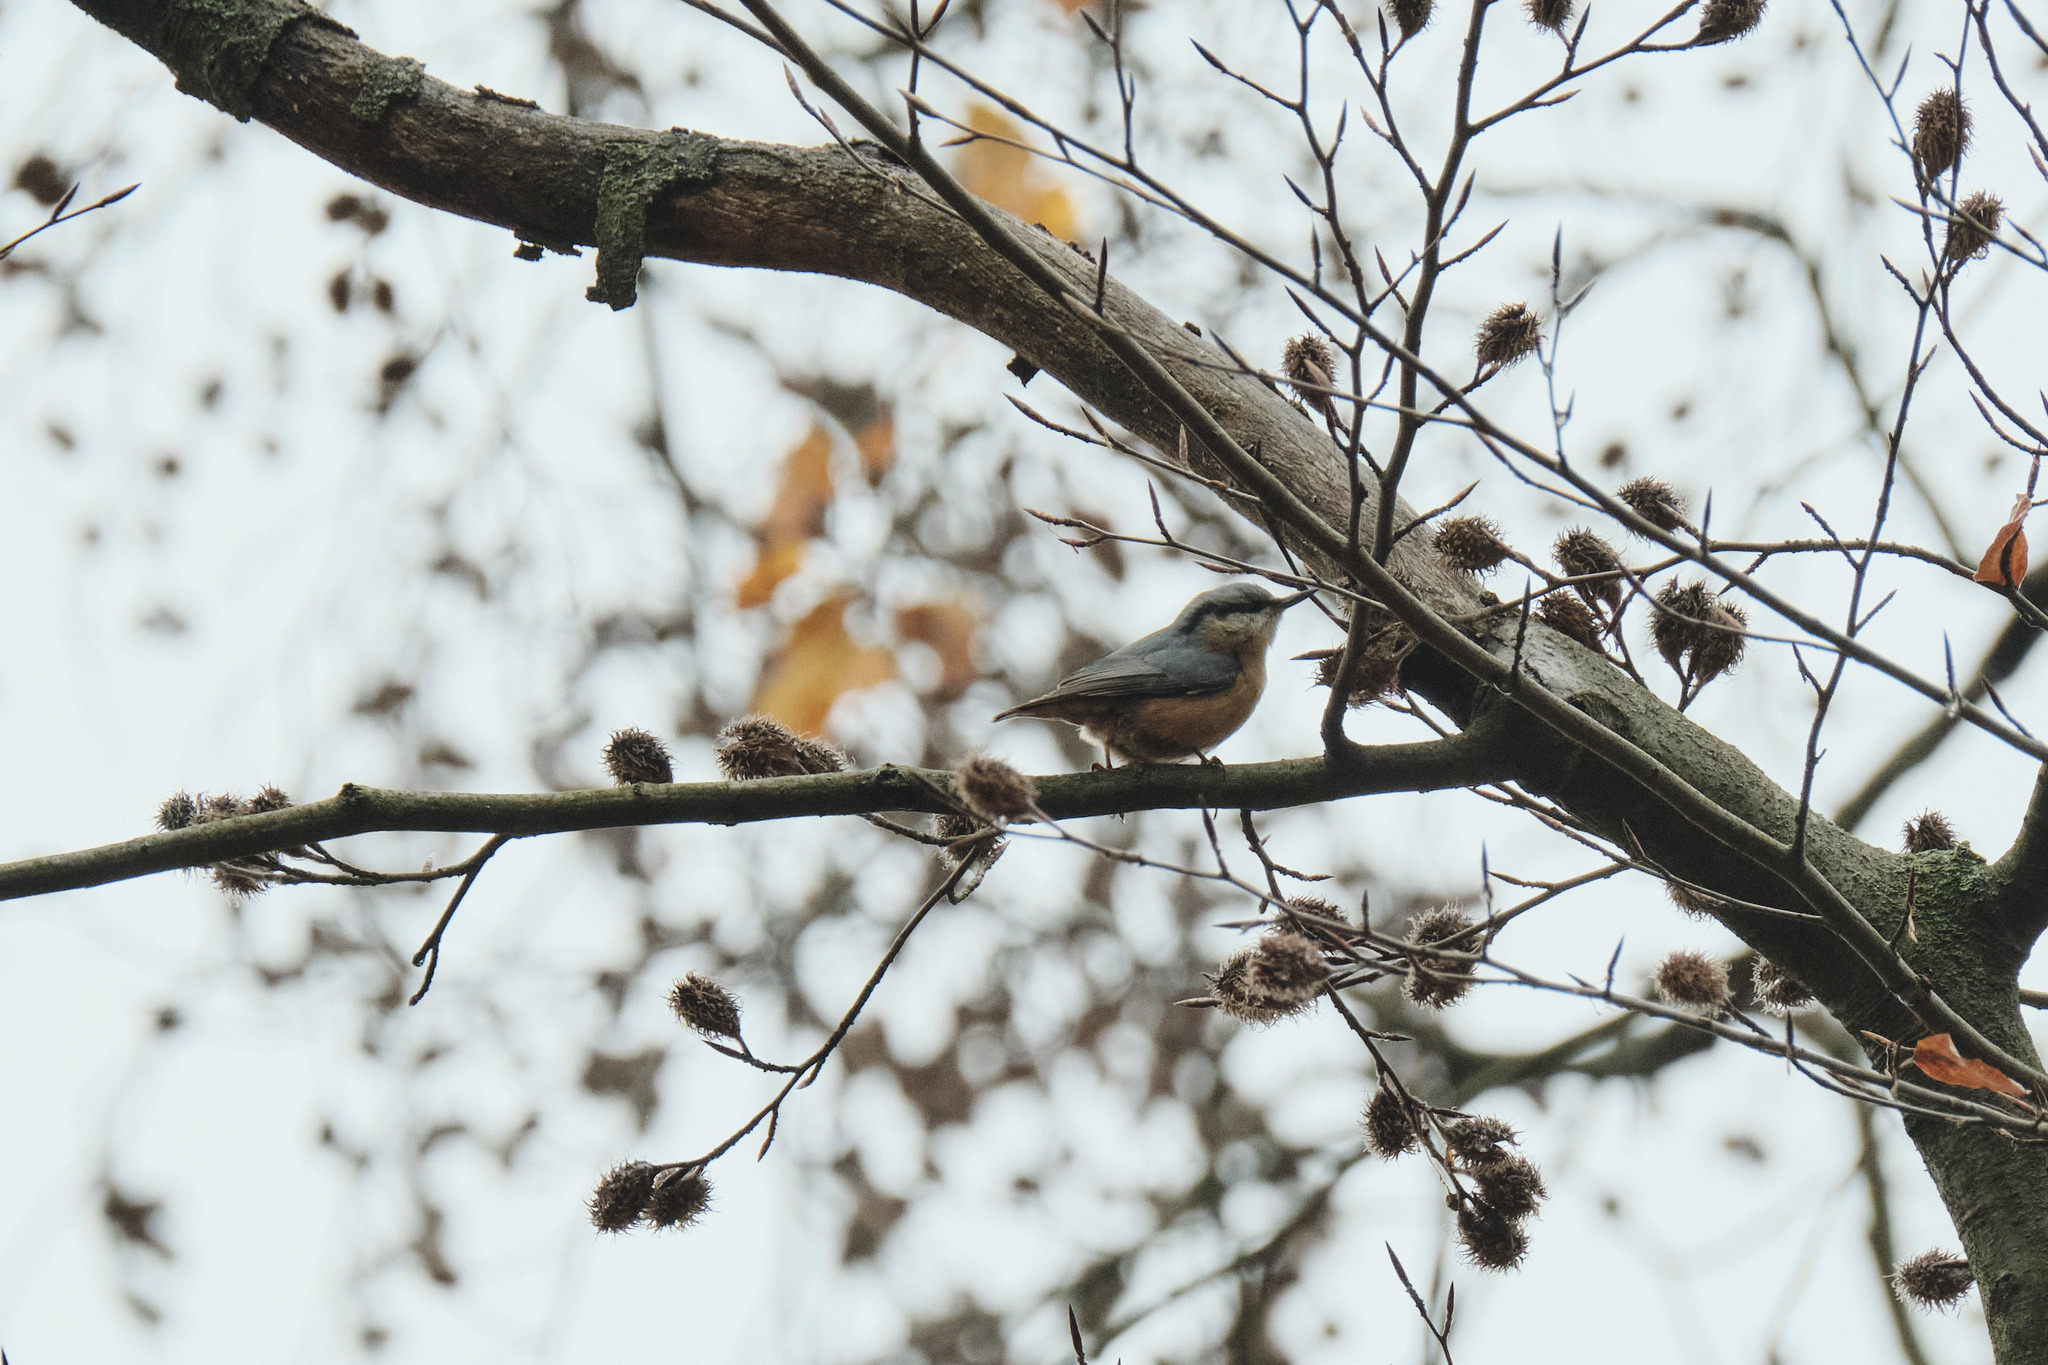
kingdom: Animalia
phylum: Chordata
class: Aves
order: Passeriformes
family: Sittidae
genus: Sitta
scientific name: Sitta europaea
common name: Eurasian nuthatch
